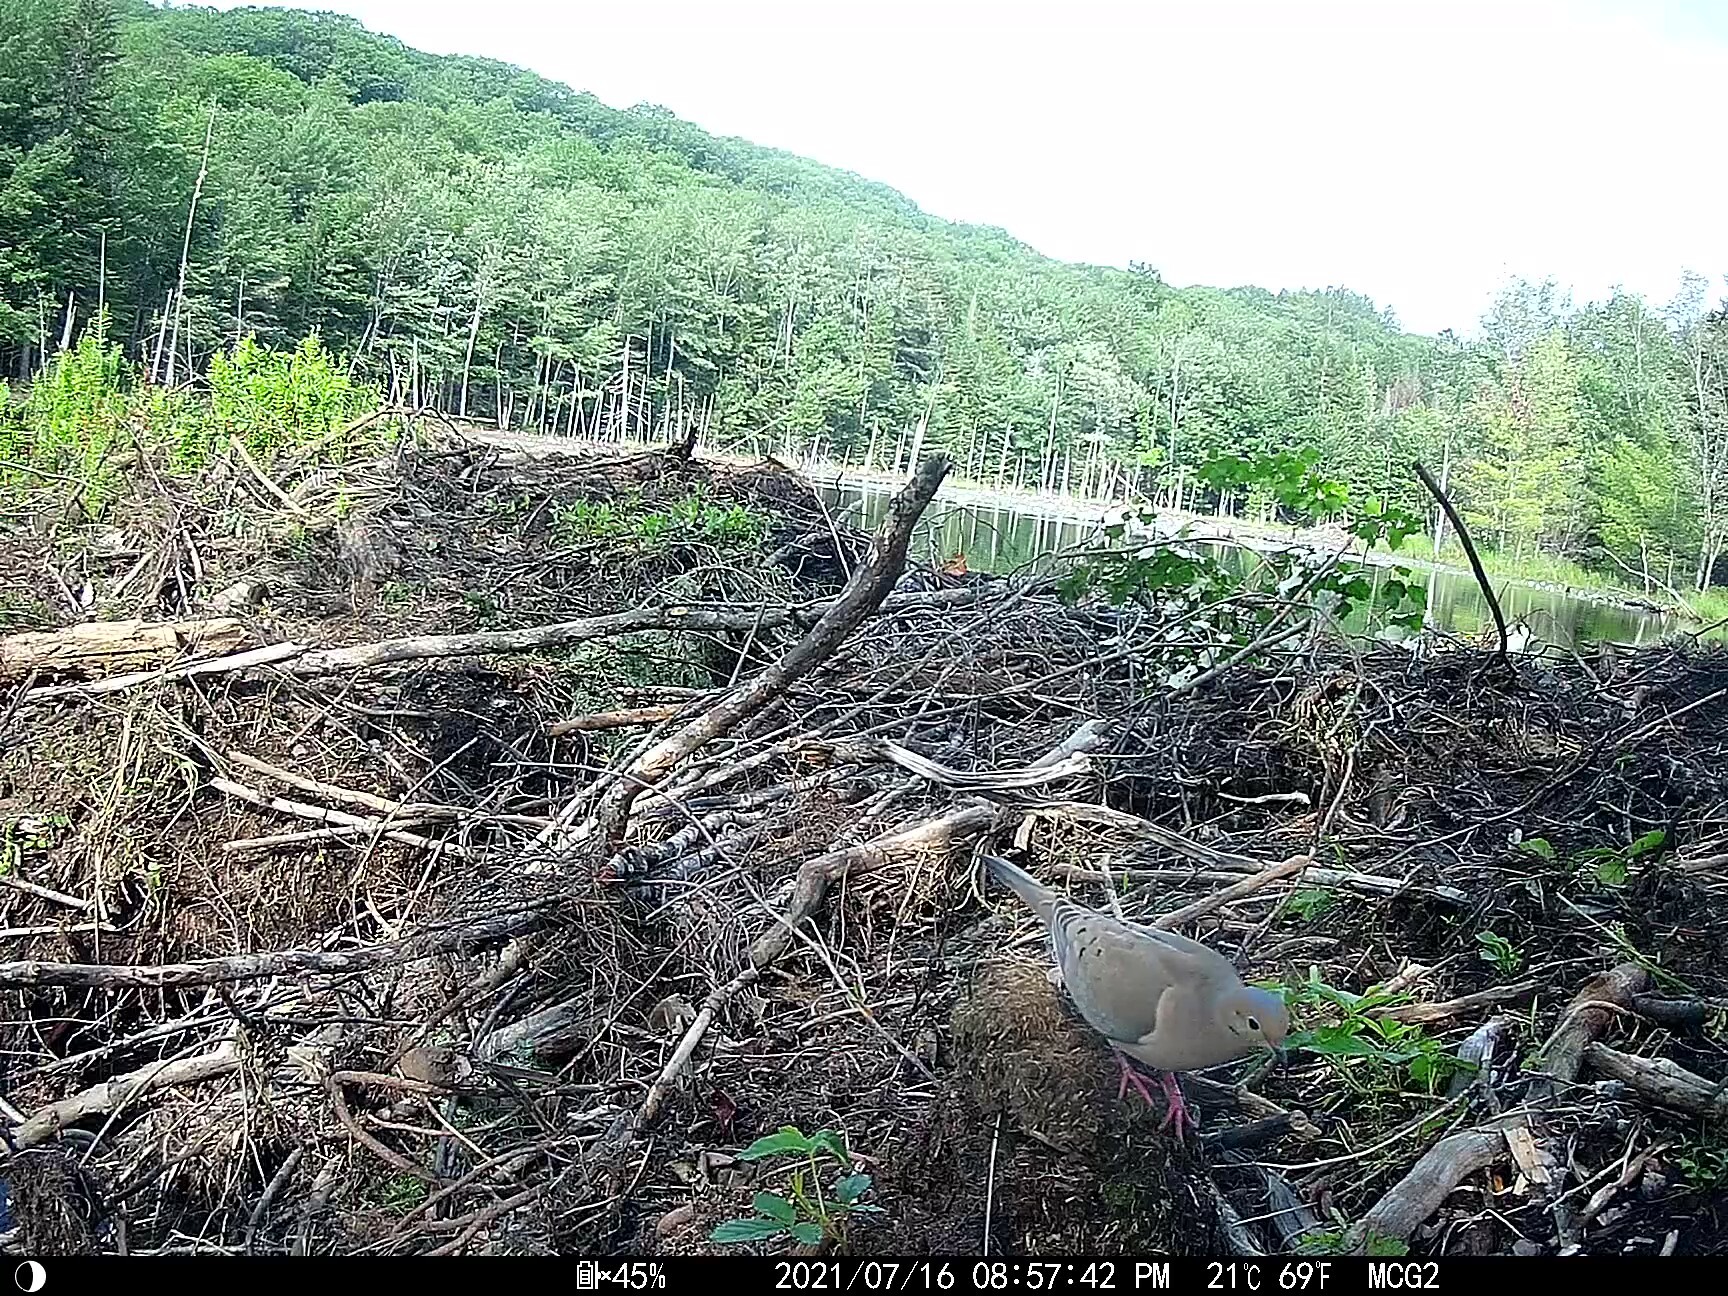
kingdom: Animalia
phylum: Chordata
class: Aves
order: Columbiformes
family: Columbidae
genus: Zenaida
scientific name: Zenaida macroura
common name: Mourning dove
